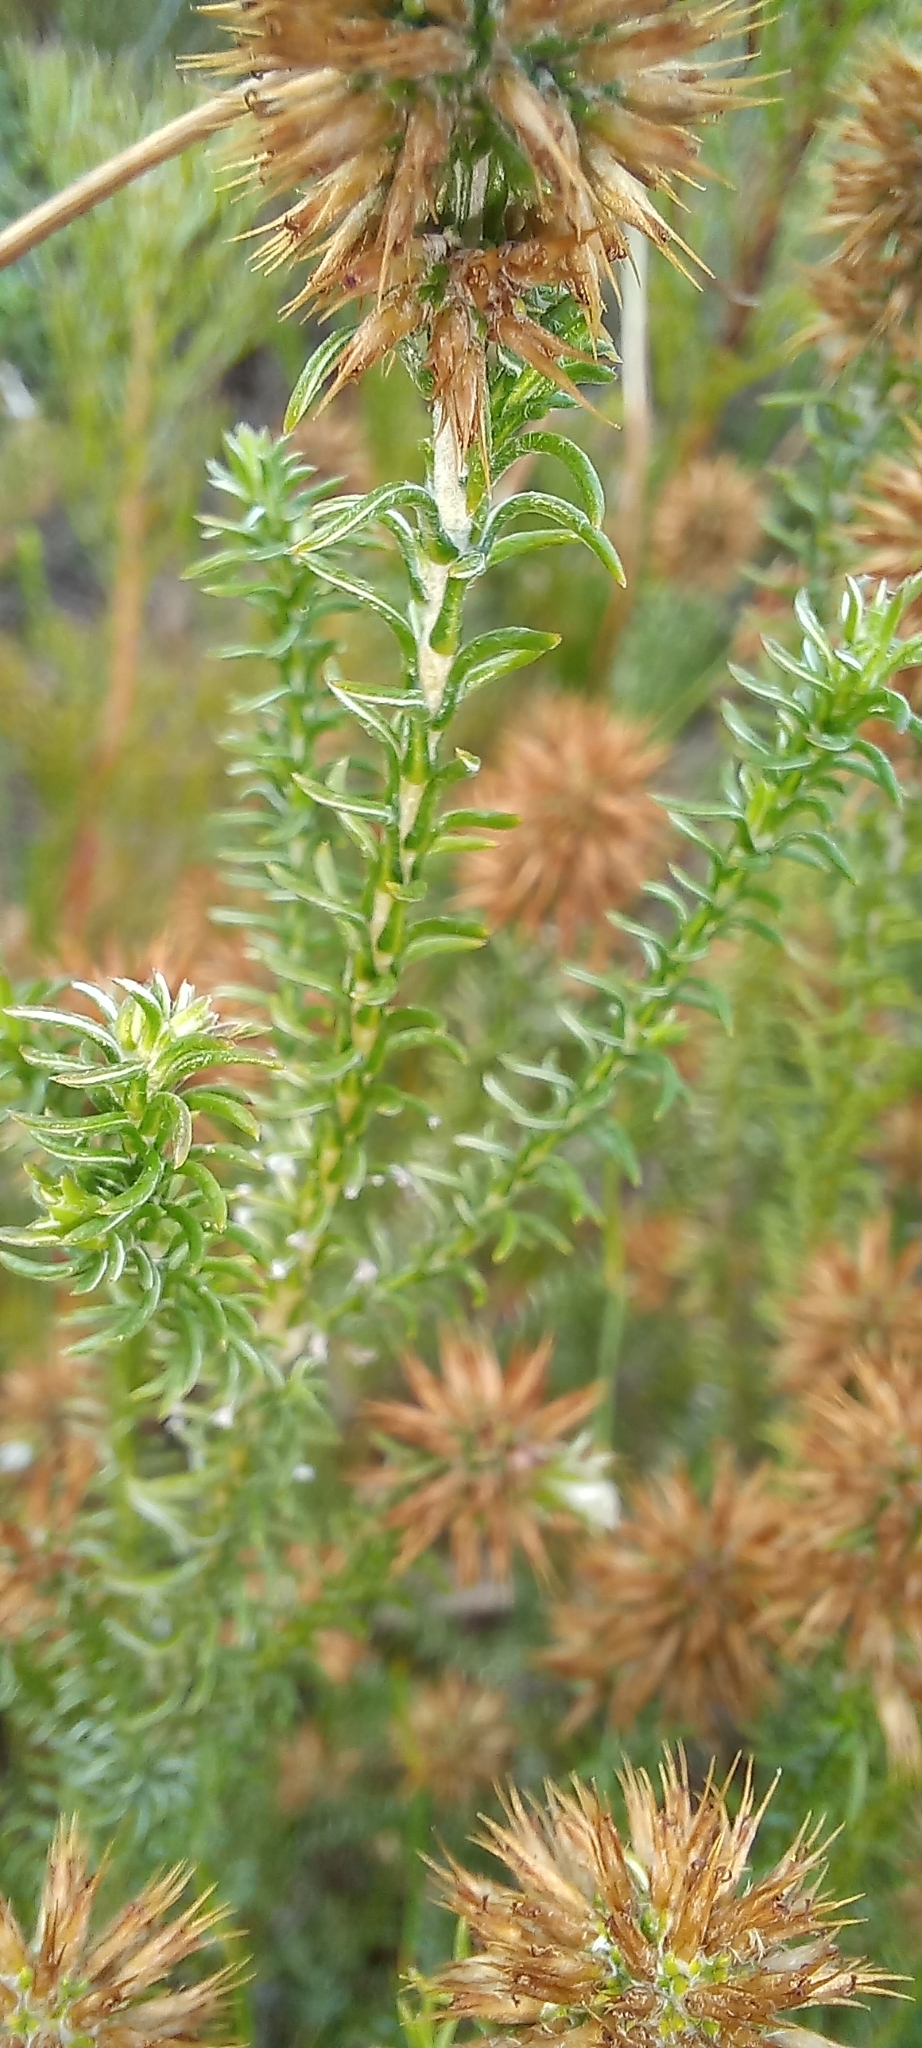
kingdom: Plantae
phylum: Tracheophyta
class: Magnoliopsida
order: Asterales
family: Asteraceae
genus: Seriphium
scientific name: Seriphium incanum
